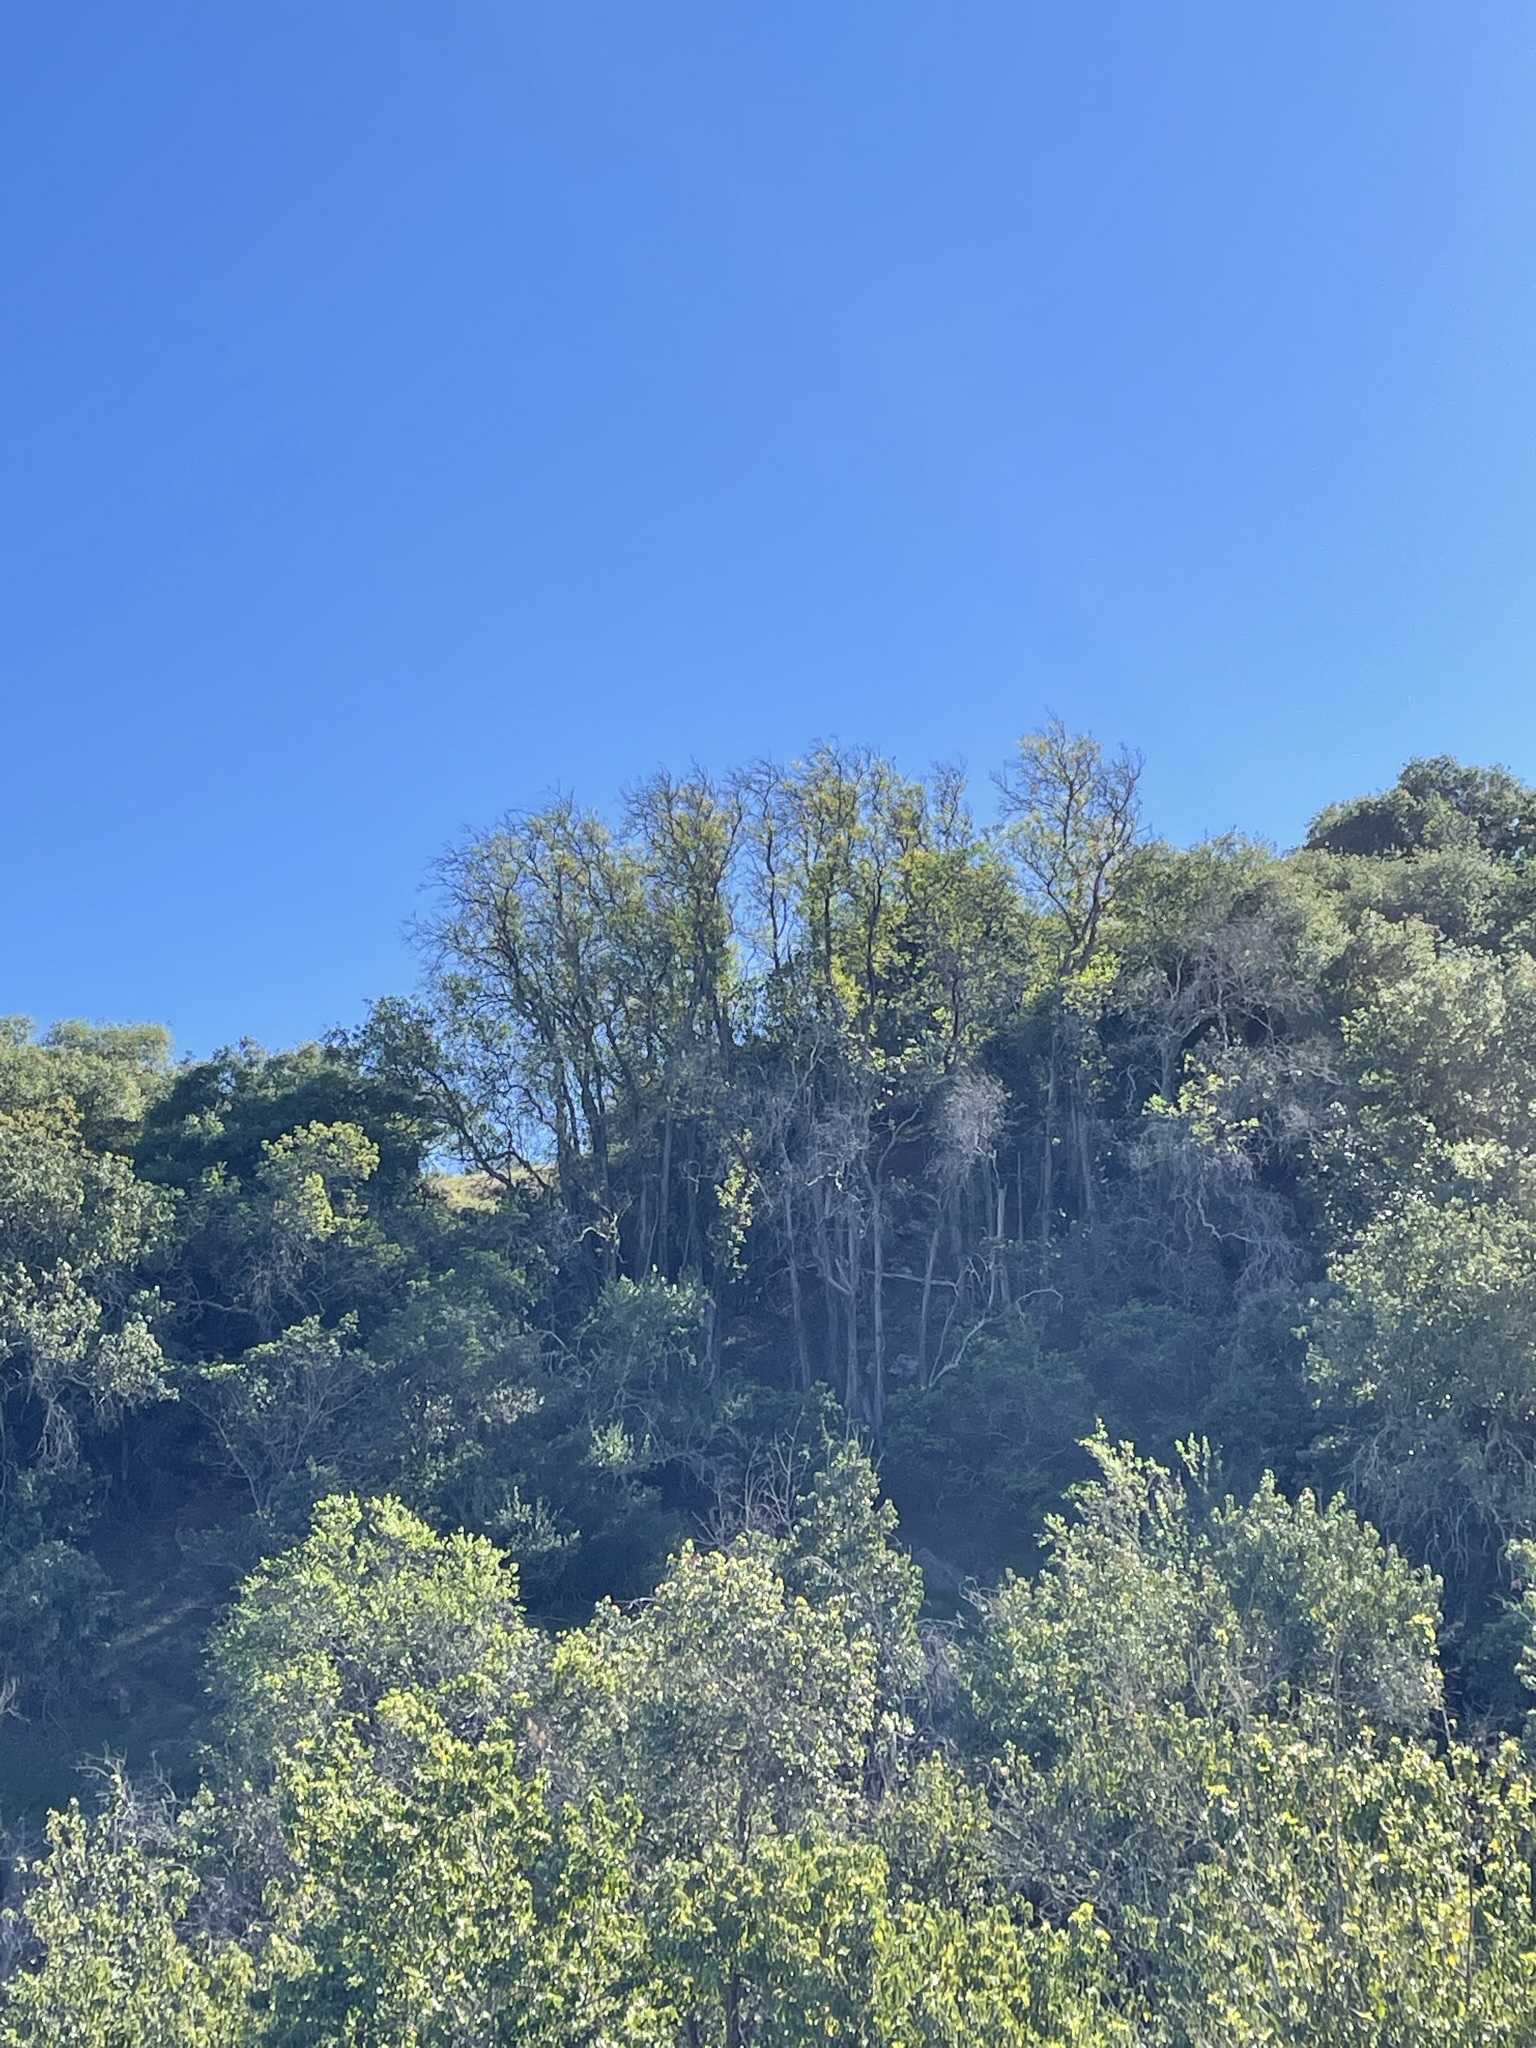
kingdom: Plantae
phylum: Tracheophyta
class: Magnoliopsida
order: Rosales
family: Rosaceae
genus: Lyonothamnus
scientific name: Lyonothamnus floribundus
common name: Catalina ironwood
